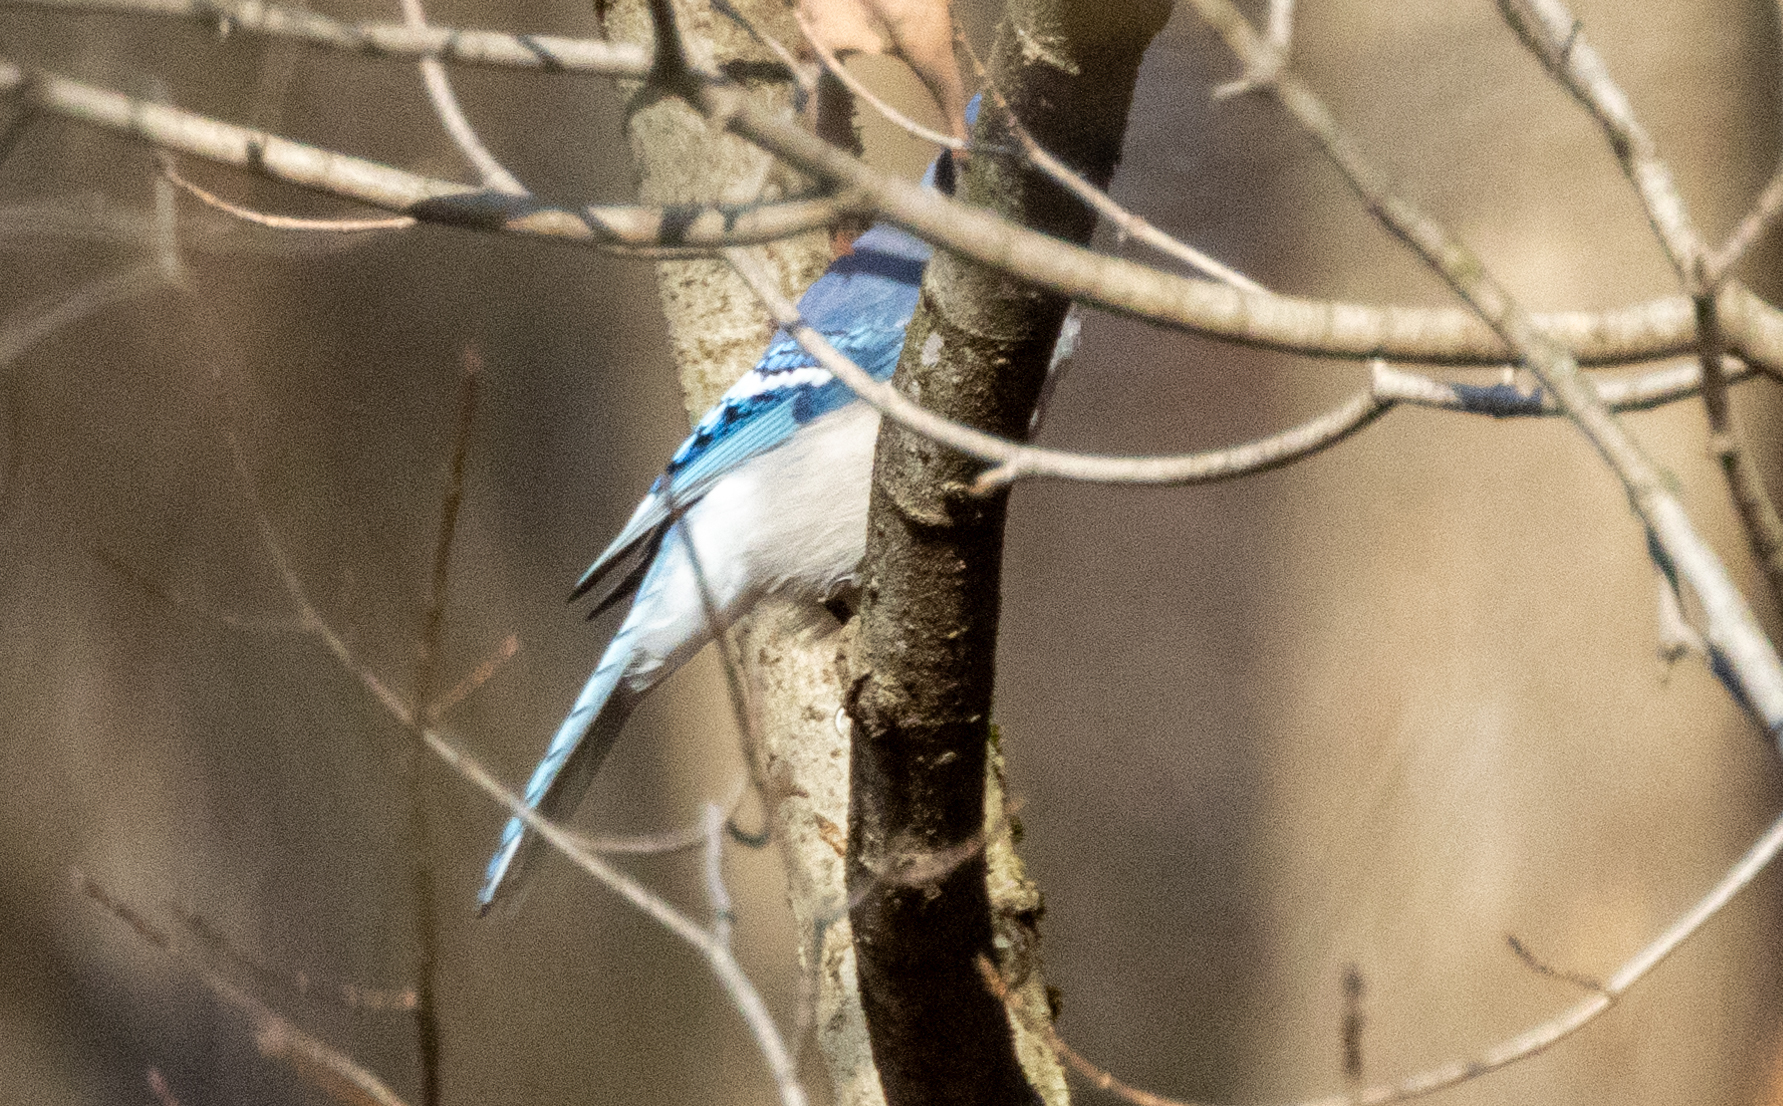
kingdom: Animalia
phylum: Chordata
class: Aves
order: Passeriformes
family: Corvidae
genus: Cyanocitta
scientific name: Cyanocitta cristata
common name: Blue jay
